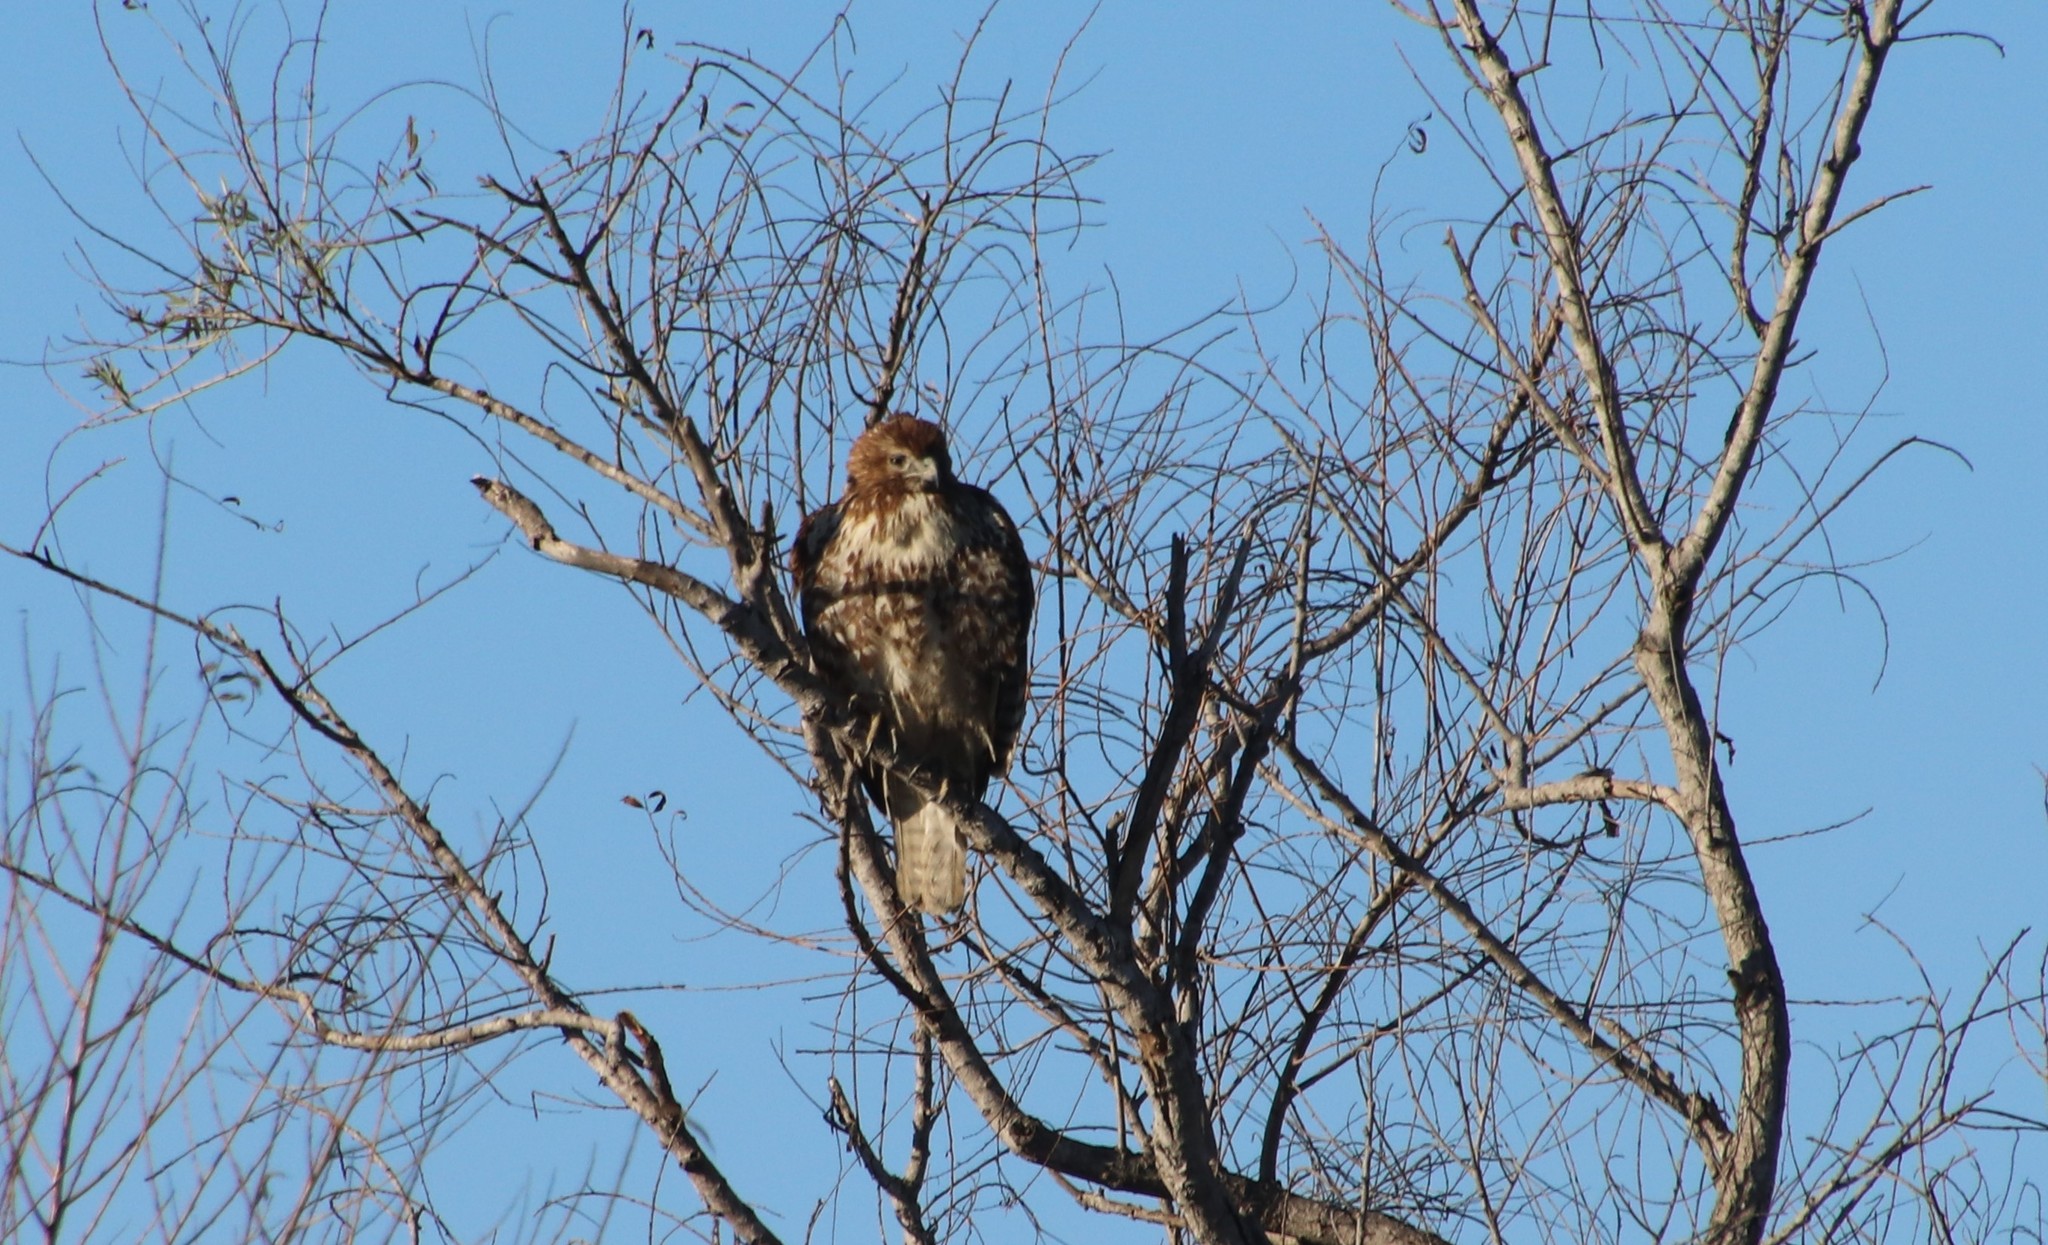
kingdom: Animalia
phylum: Chordata
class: Aves
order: Accipitriformes
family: Accipitridae
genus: Buteo
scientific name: Buteo jamaicensis
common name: Red-tailed hawk
